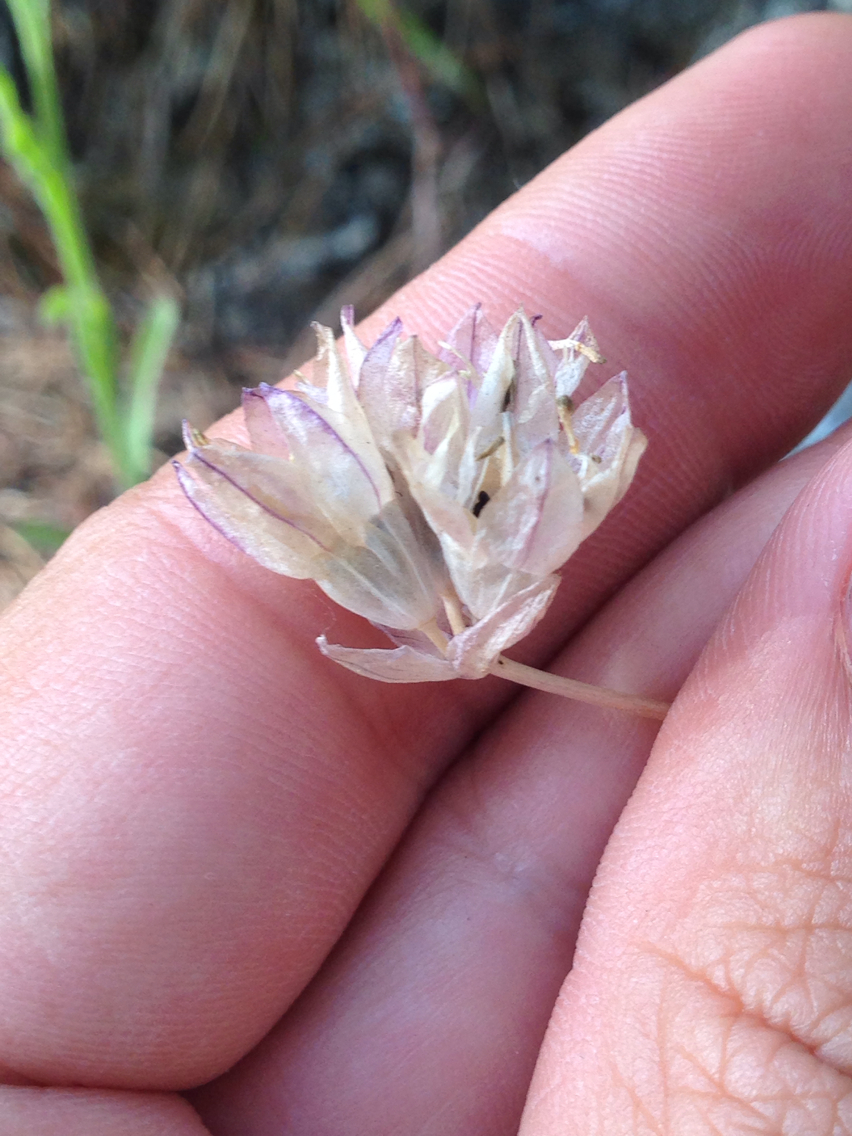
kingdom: Plantae
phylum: Tracheophyta
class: Liliopsida
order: Asparagales
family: Asparagaceae
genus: Dipterostemon
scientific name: Dipterostemon capitatus
